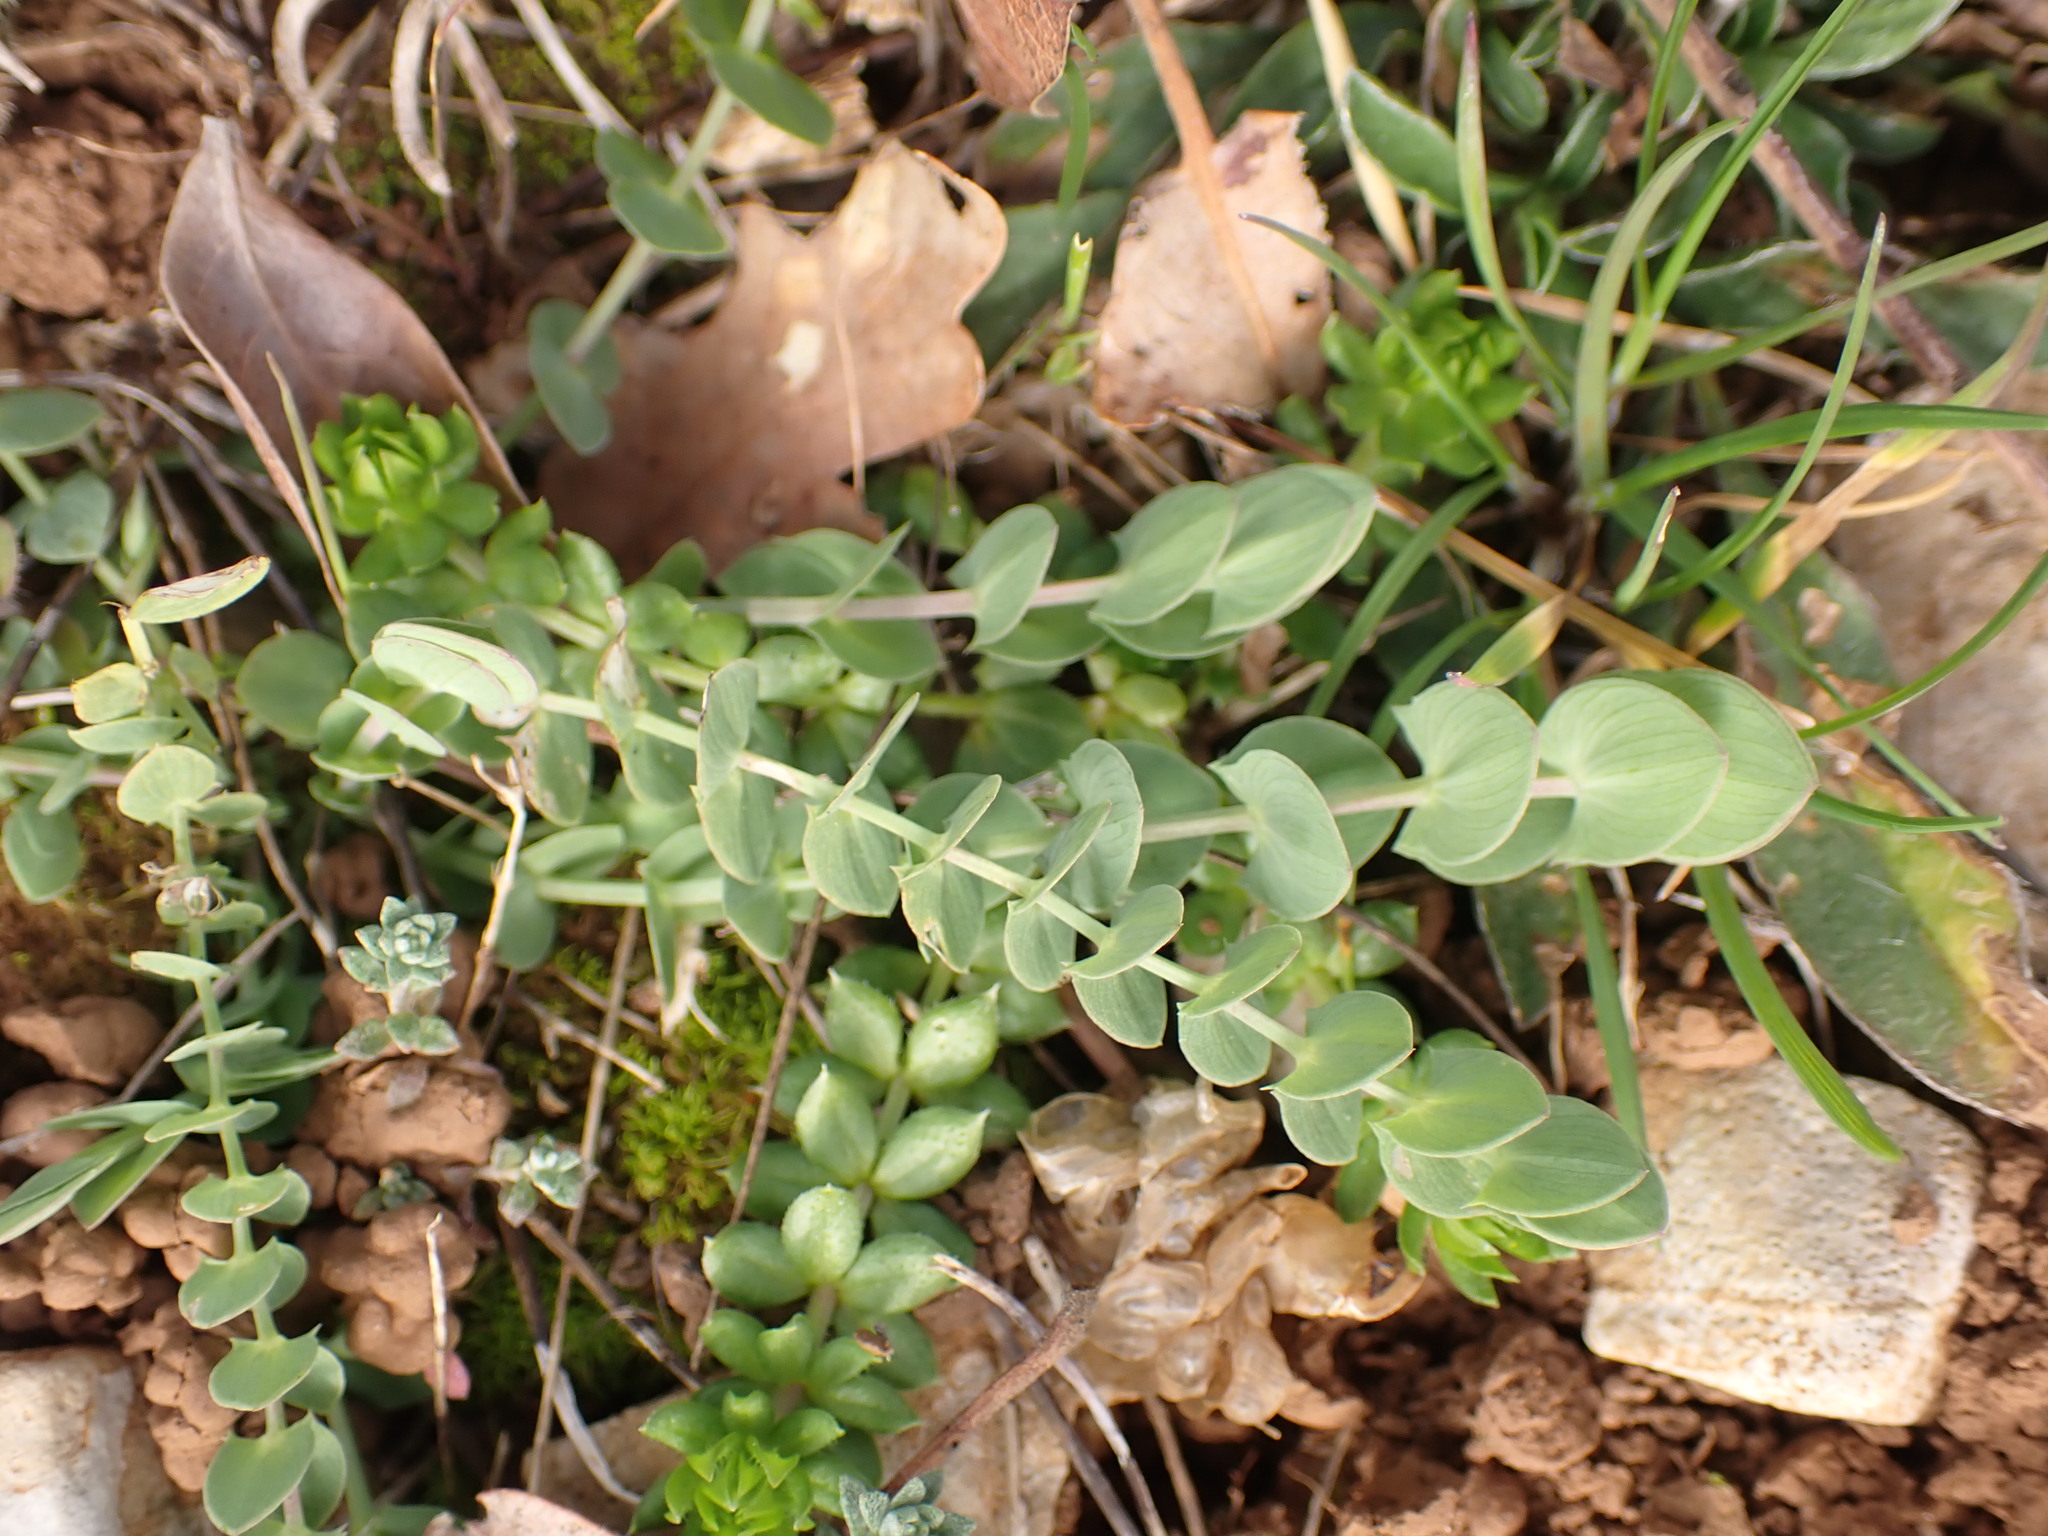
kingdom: Plantae
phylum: Tracheophyta
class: Magnoliopsida
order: Fabales
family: Fabaceae
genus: Lathyrus
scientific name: Lathyrus aphaca
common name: Yellow vetchling
